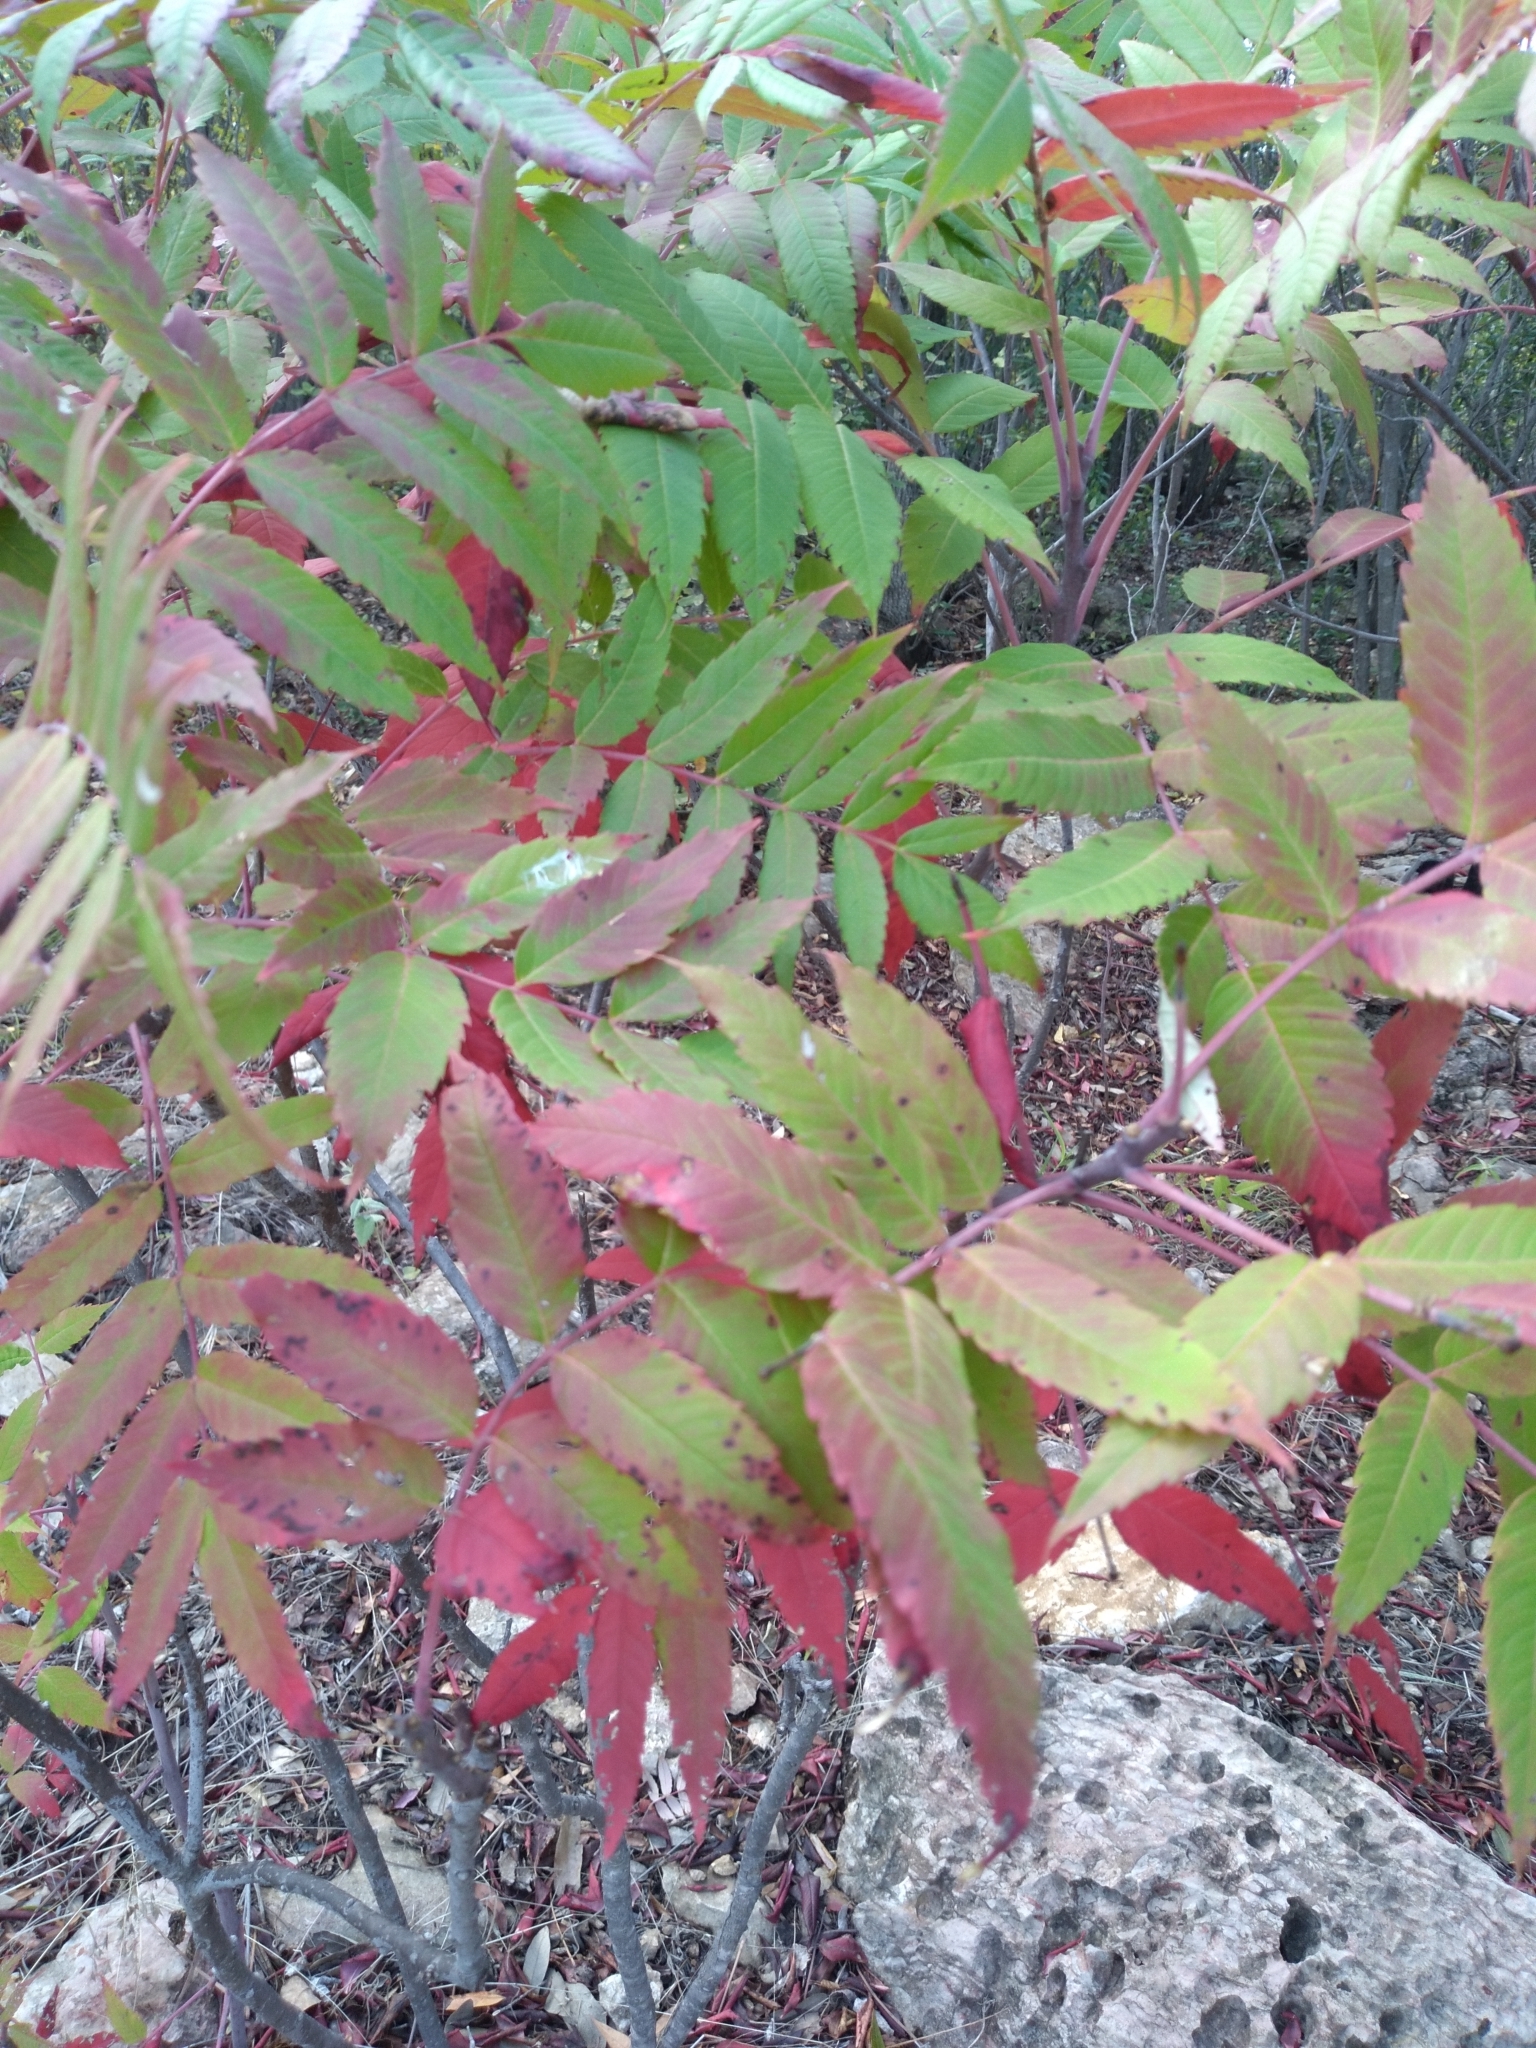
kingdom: Plantae
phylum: Tracheophyta
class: Magnoliopsida
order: Sapindales
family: Anacardiaceae
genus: Rhus
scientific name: Rhus glabra
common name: Scarlet sumac
